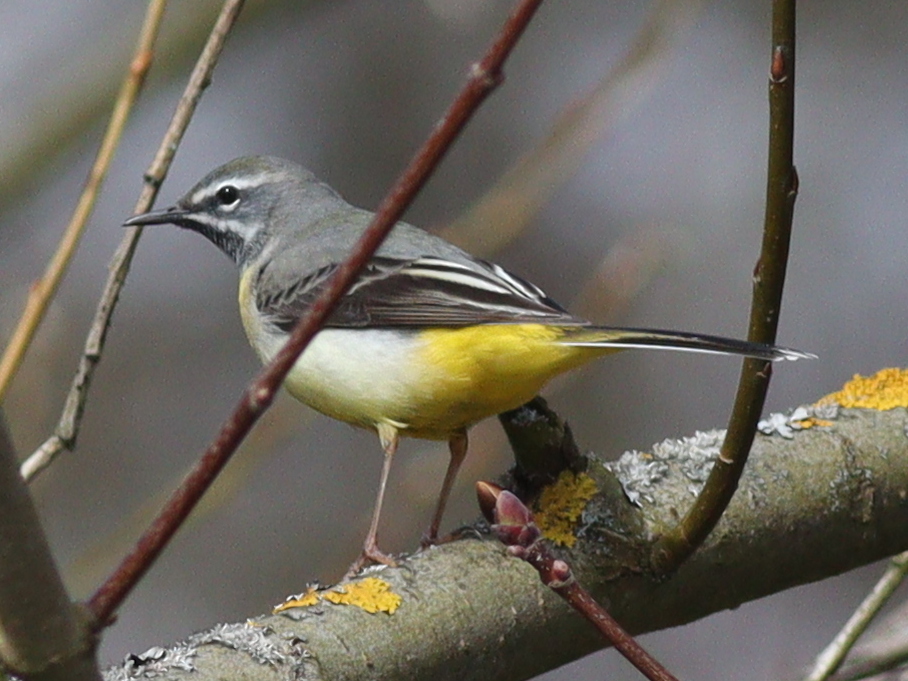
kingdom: Animalia
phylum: Chordata
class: Aves
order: Passeriformes
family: Motacillidae
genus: Motacilla
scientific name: Motacilla cinerea
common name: Grey wagtail
